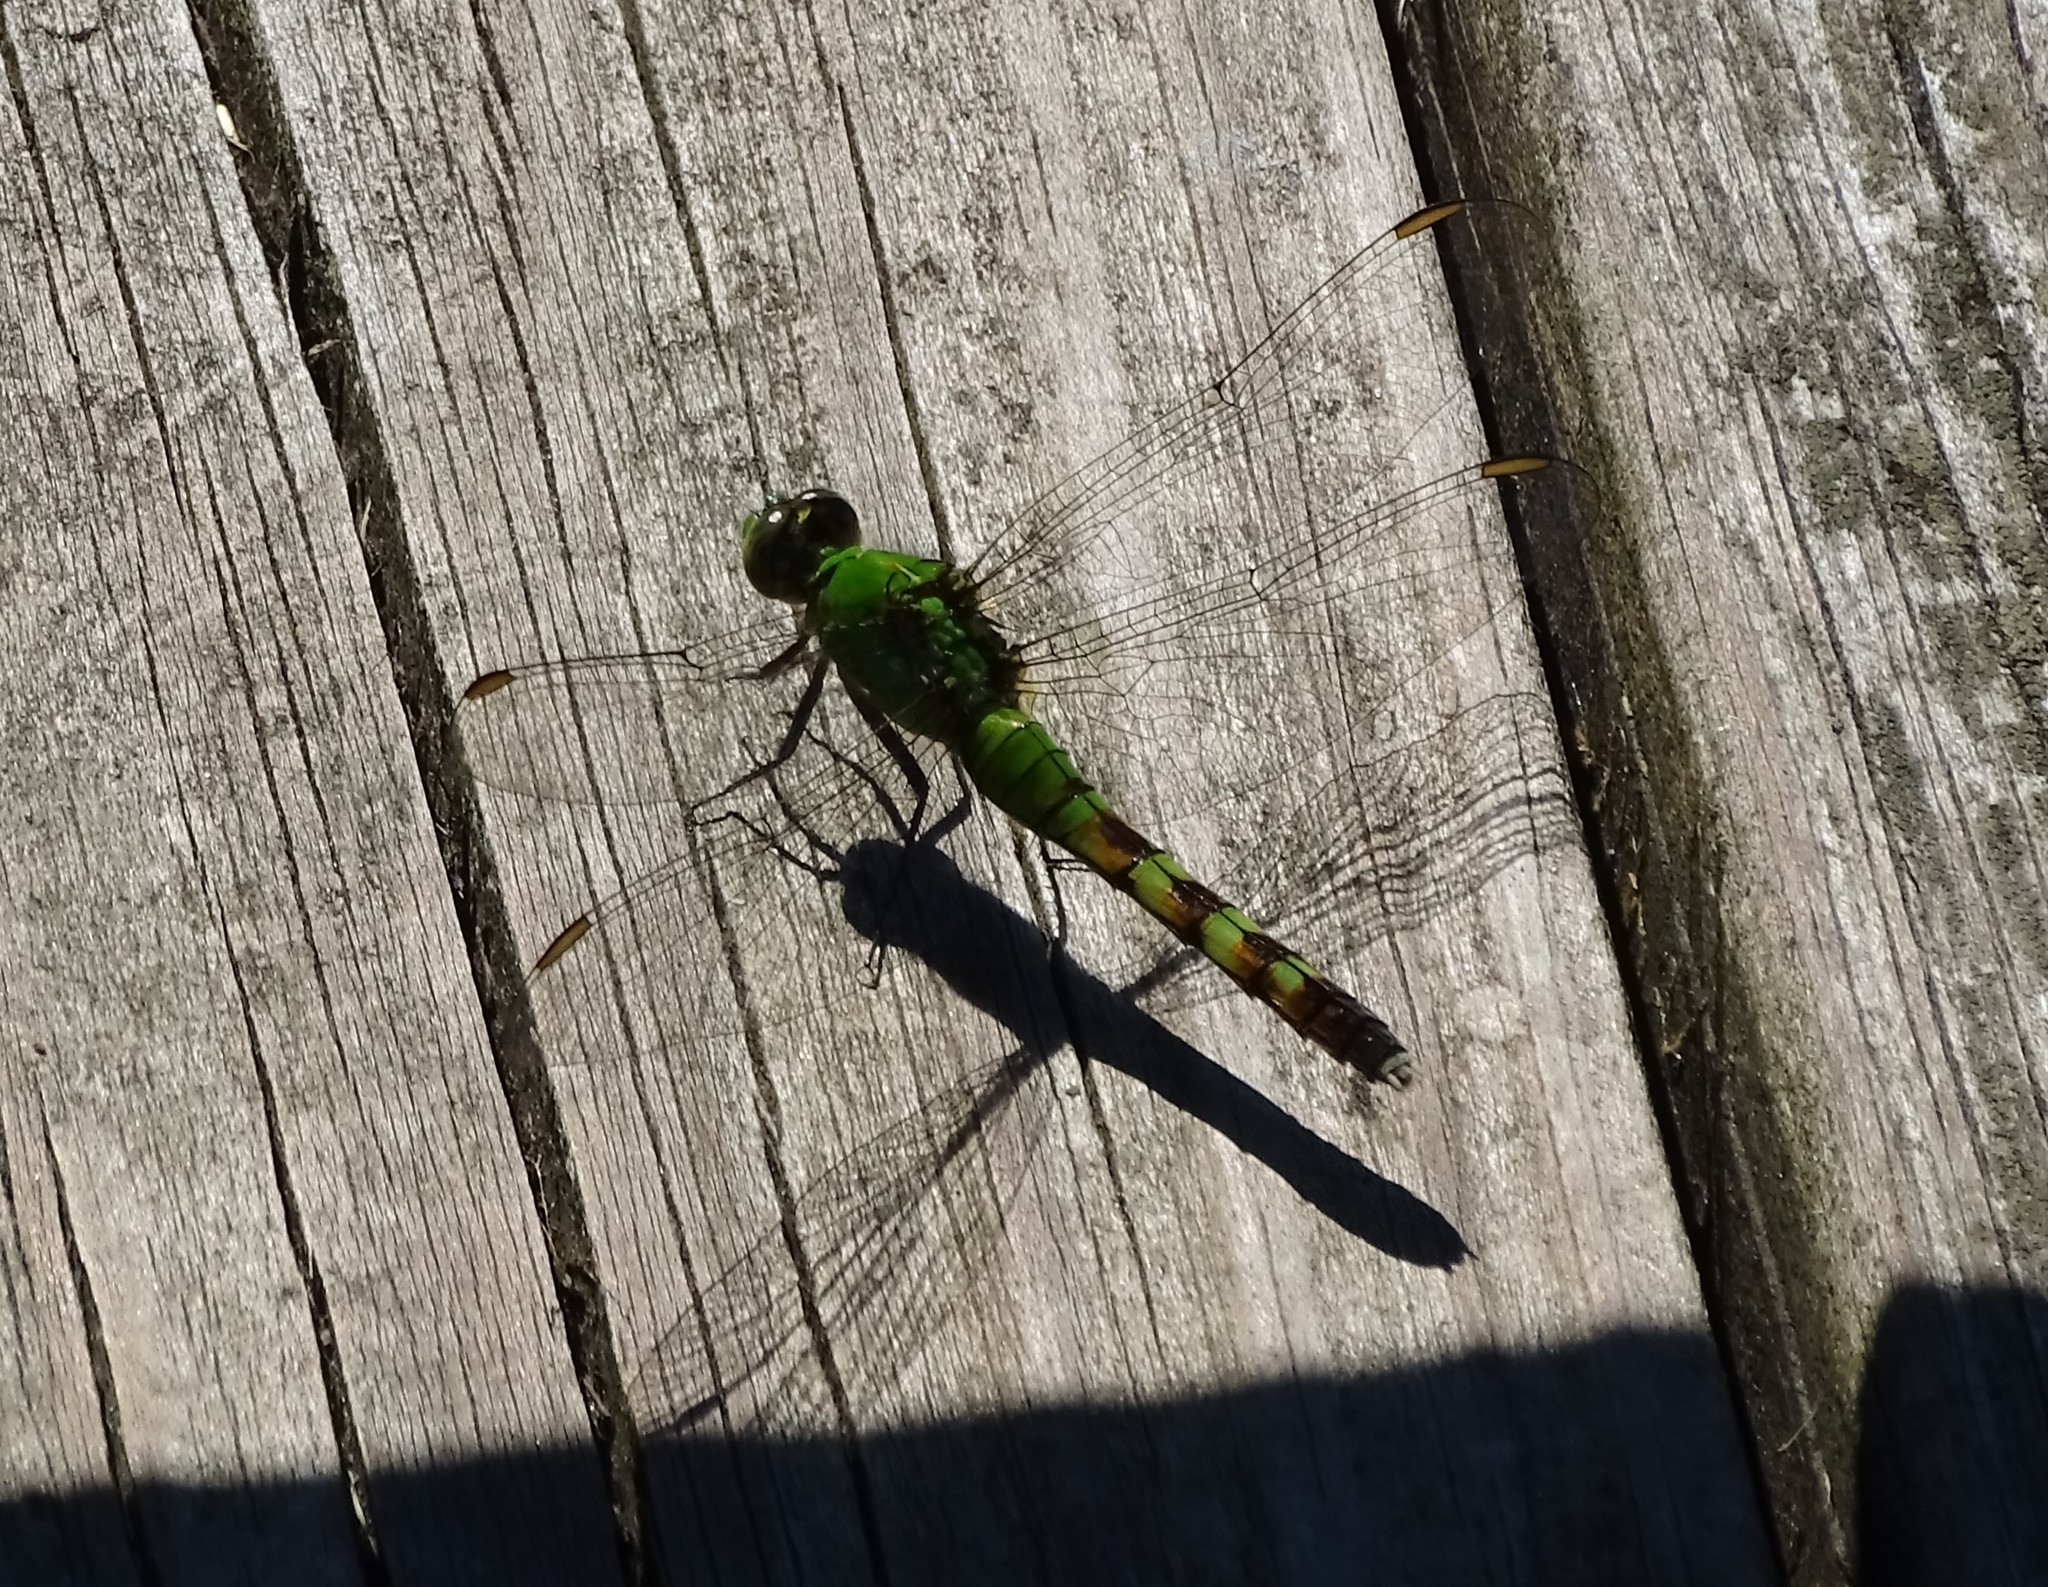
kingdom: Animalia
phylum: Arthropoda
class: Insecta
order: Odonata
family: Libellulidae
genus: Erythemis
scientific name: Erythemis simplicicollis
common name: Eastern pondhawk
